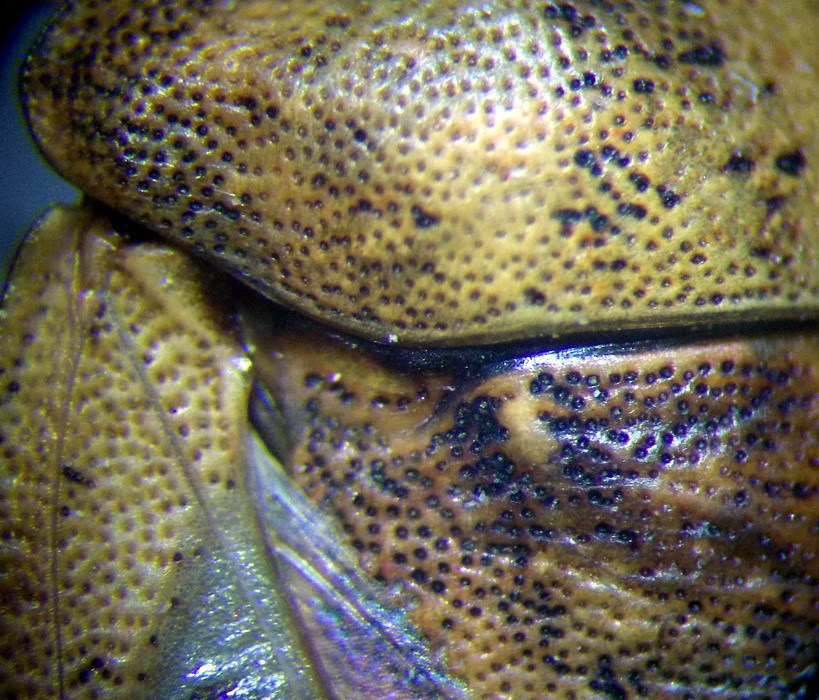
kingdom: Animalia
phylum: Arthropoda
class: Insecta
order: Hemiptera
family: Scutelleridae
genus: Eurygaster
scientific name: Eurygaster testudinaria
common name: Tortoise bug
